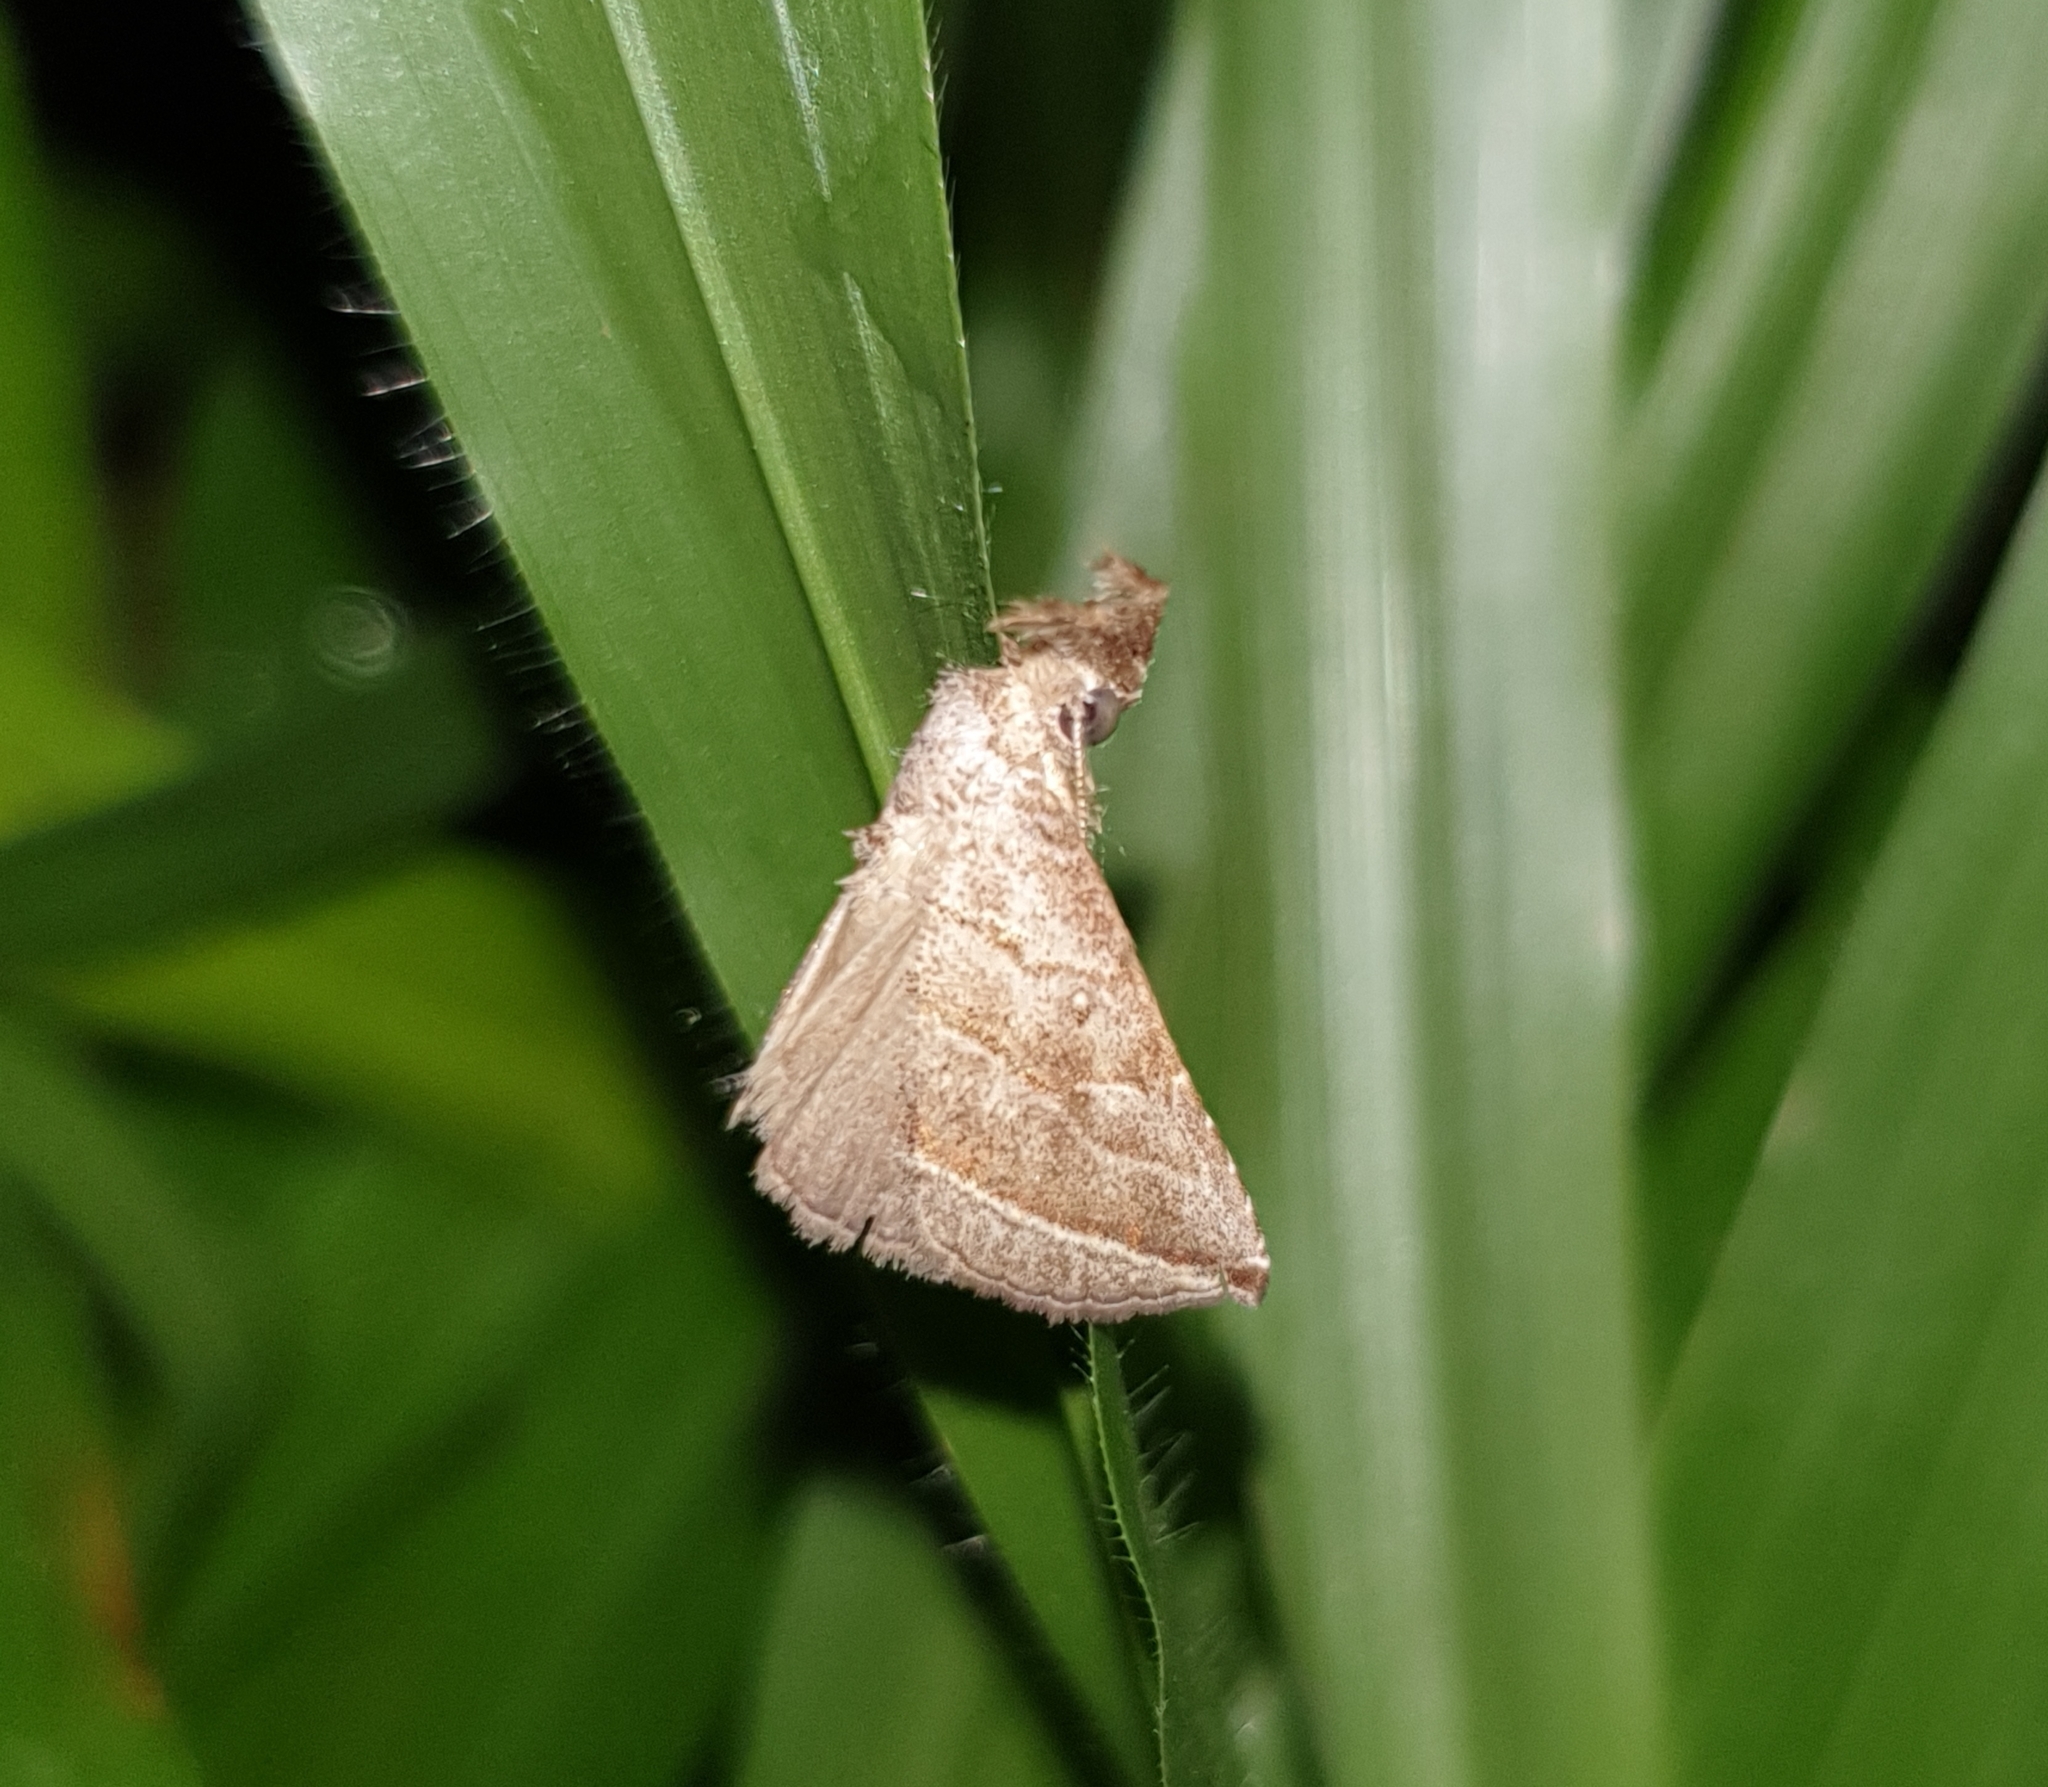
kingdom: Animalia
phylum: Arthropoda
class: Insecta
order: Lepidoptera
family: Erebidae
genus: Britha
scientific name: Britha biguttata
